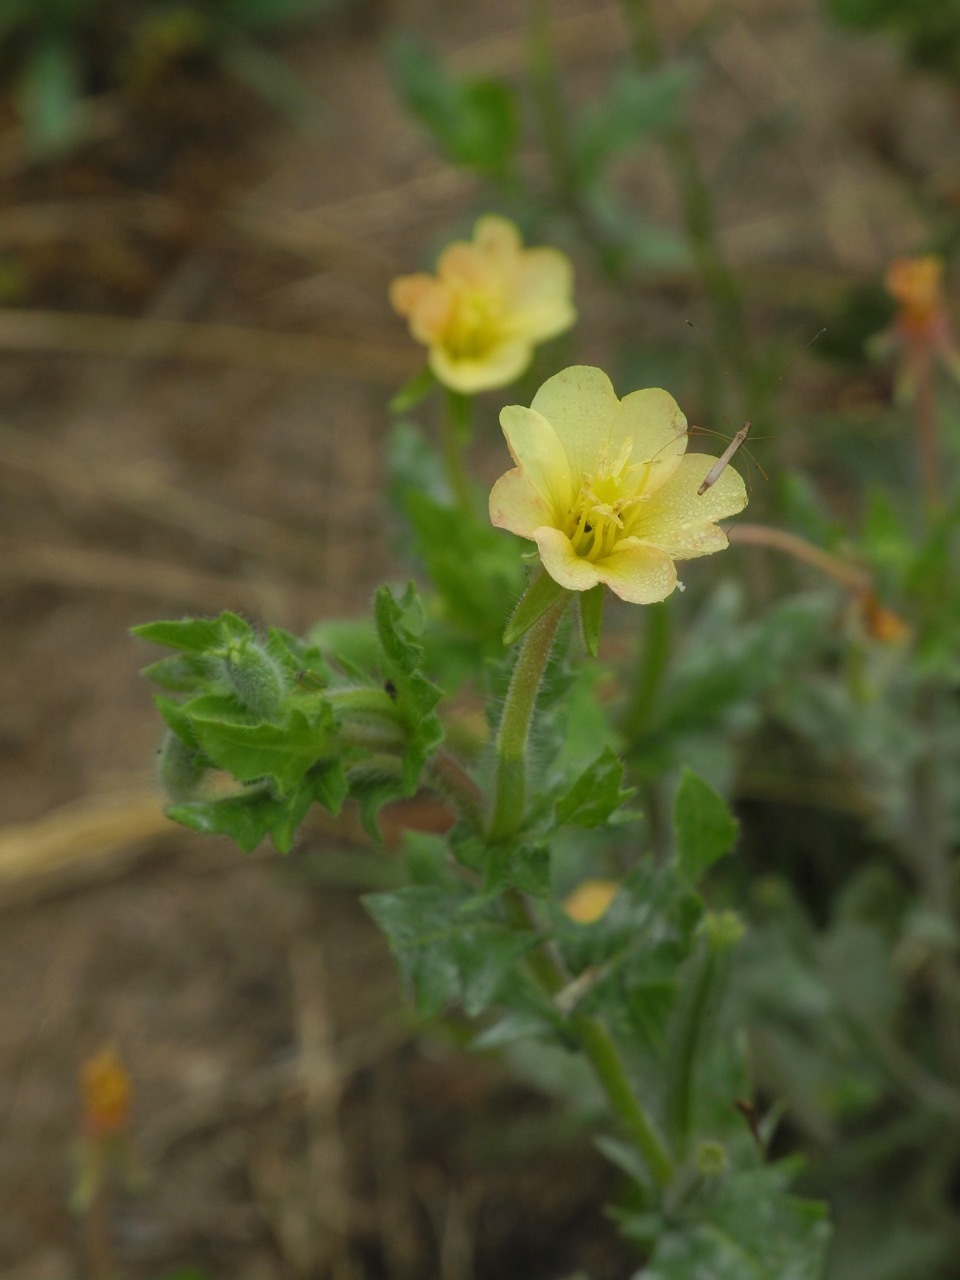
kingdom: Plantae
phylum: Tracheophyta
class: Magnoliopsida
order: Myrtales
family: Onagraceae
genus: Oenothera
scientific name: Oenothera laciniata
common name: Cut-leaved evening-primrose
